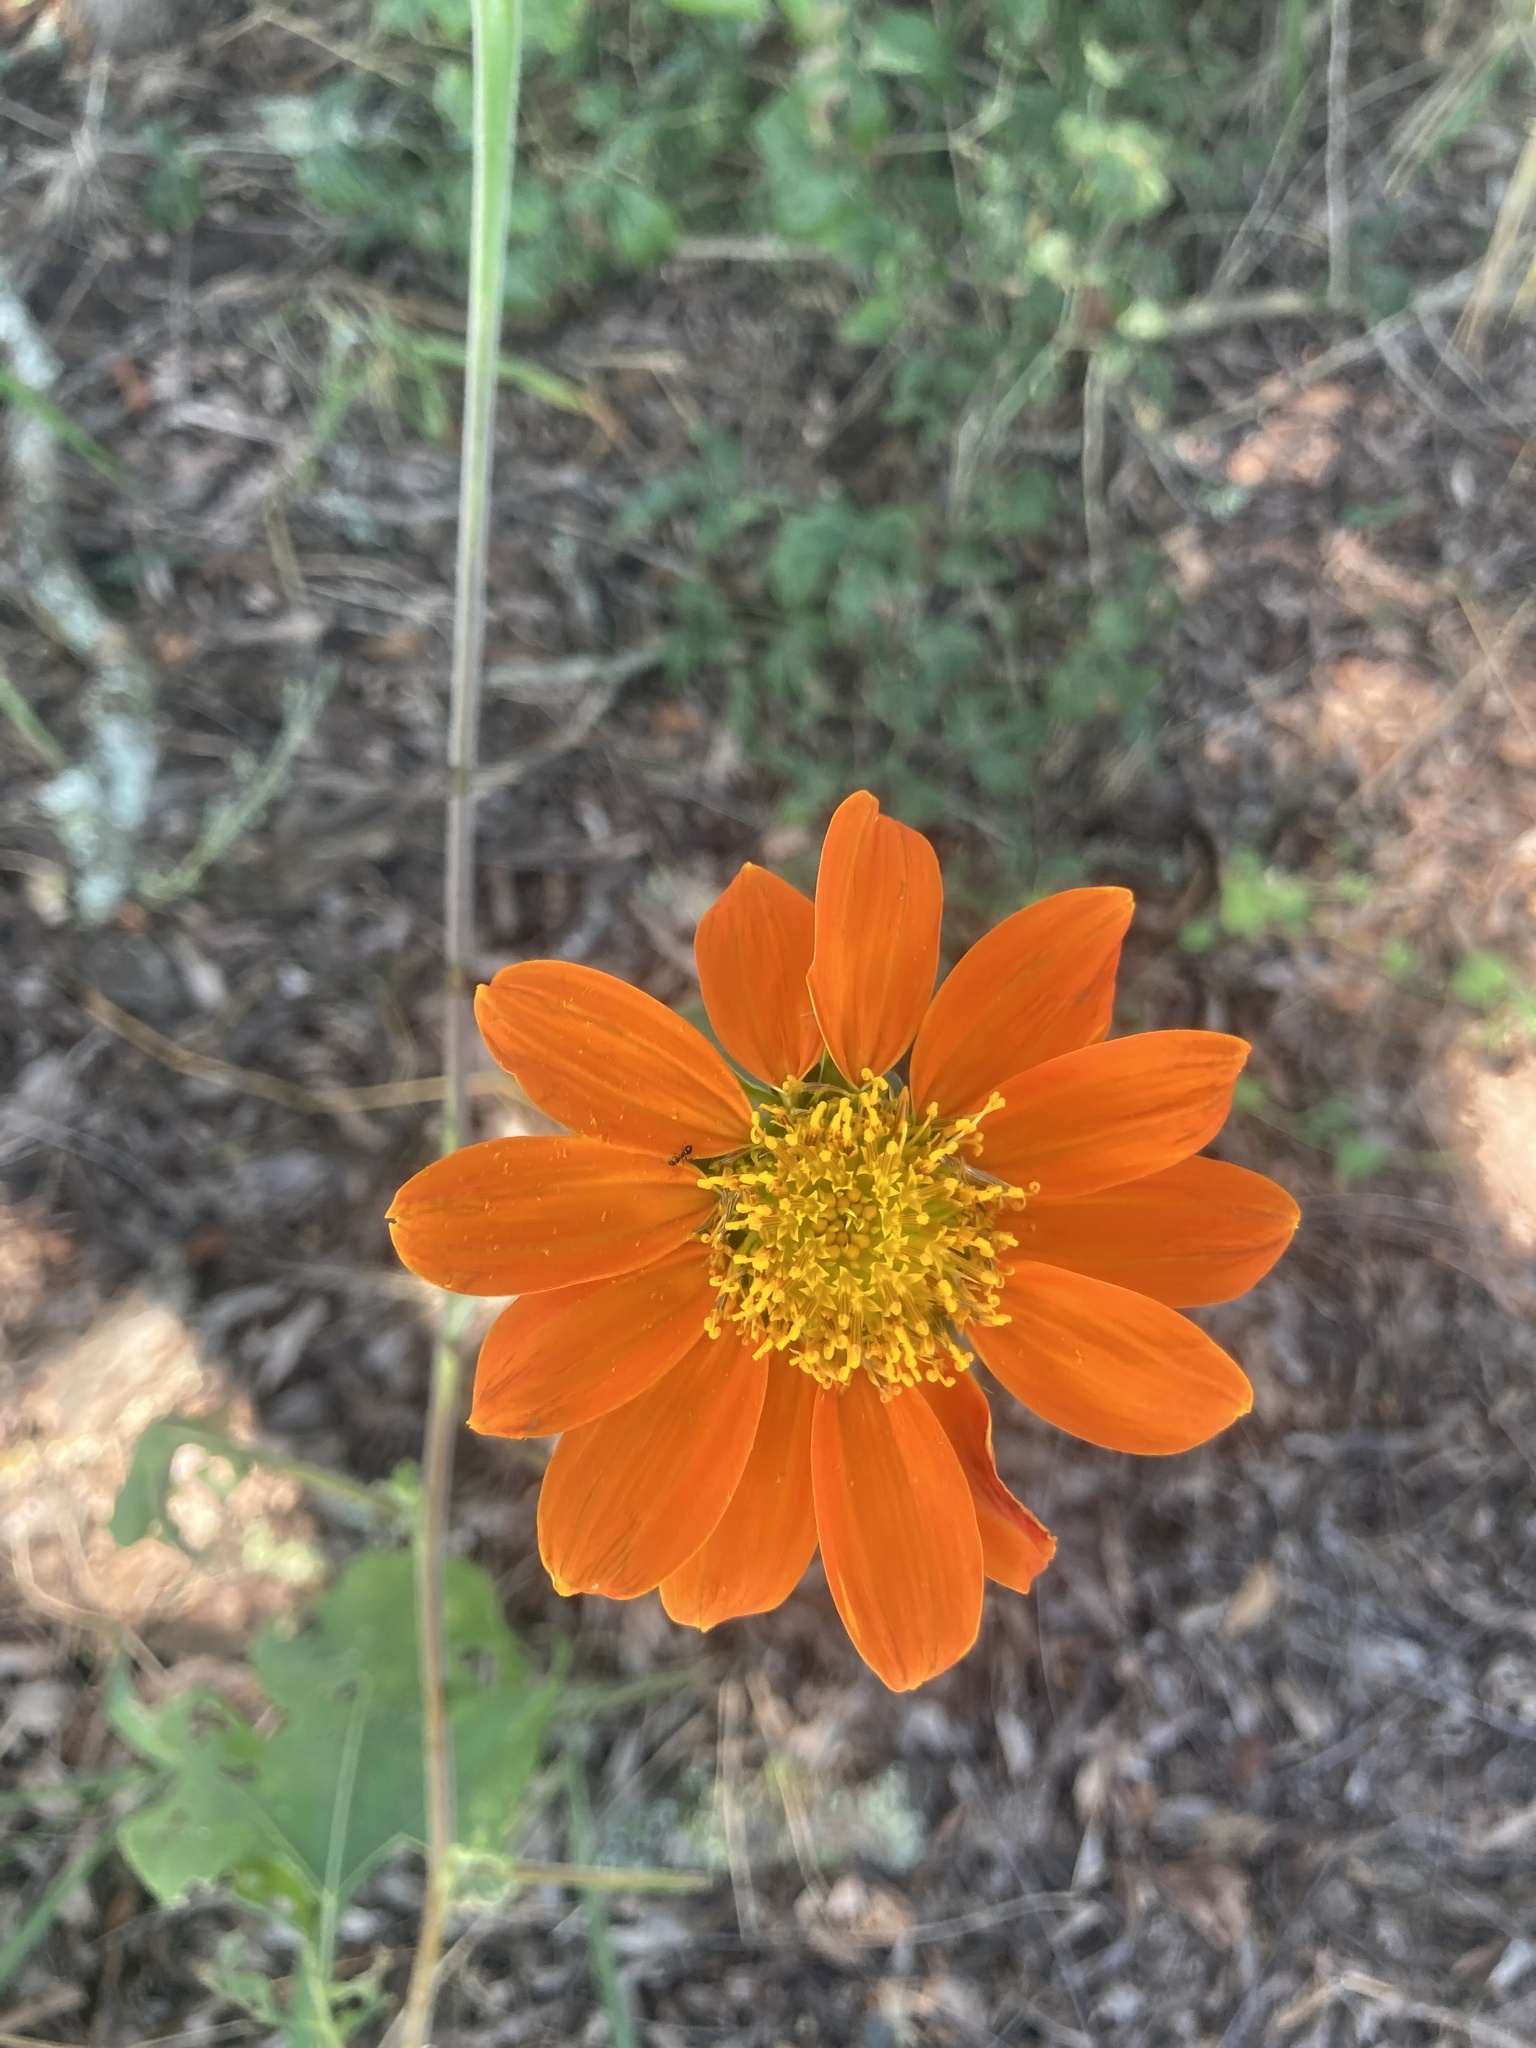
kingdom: Plantae
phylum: Tracheophyta
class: Magnoliopsida
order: Asterales
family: Asteraceae
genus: Tithonia
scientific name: Tithonia rotundifolia
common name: Sunflower
